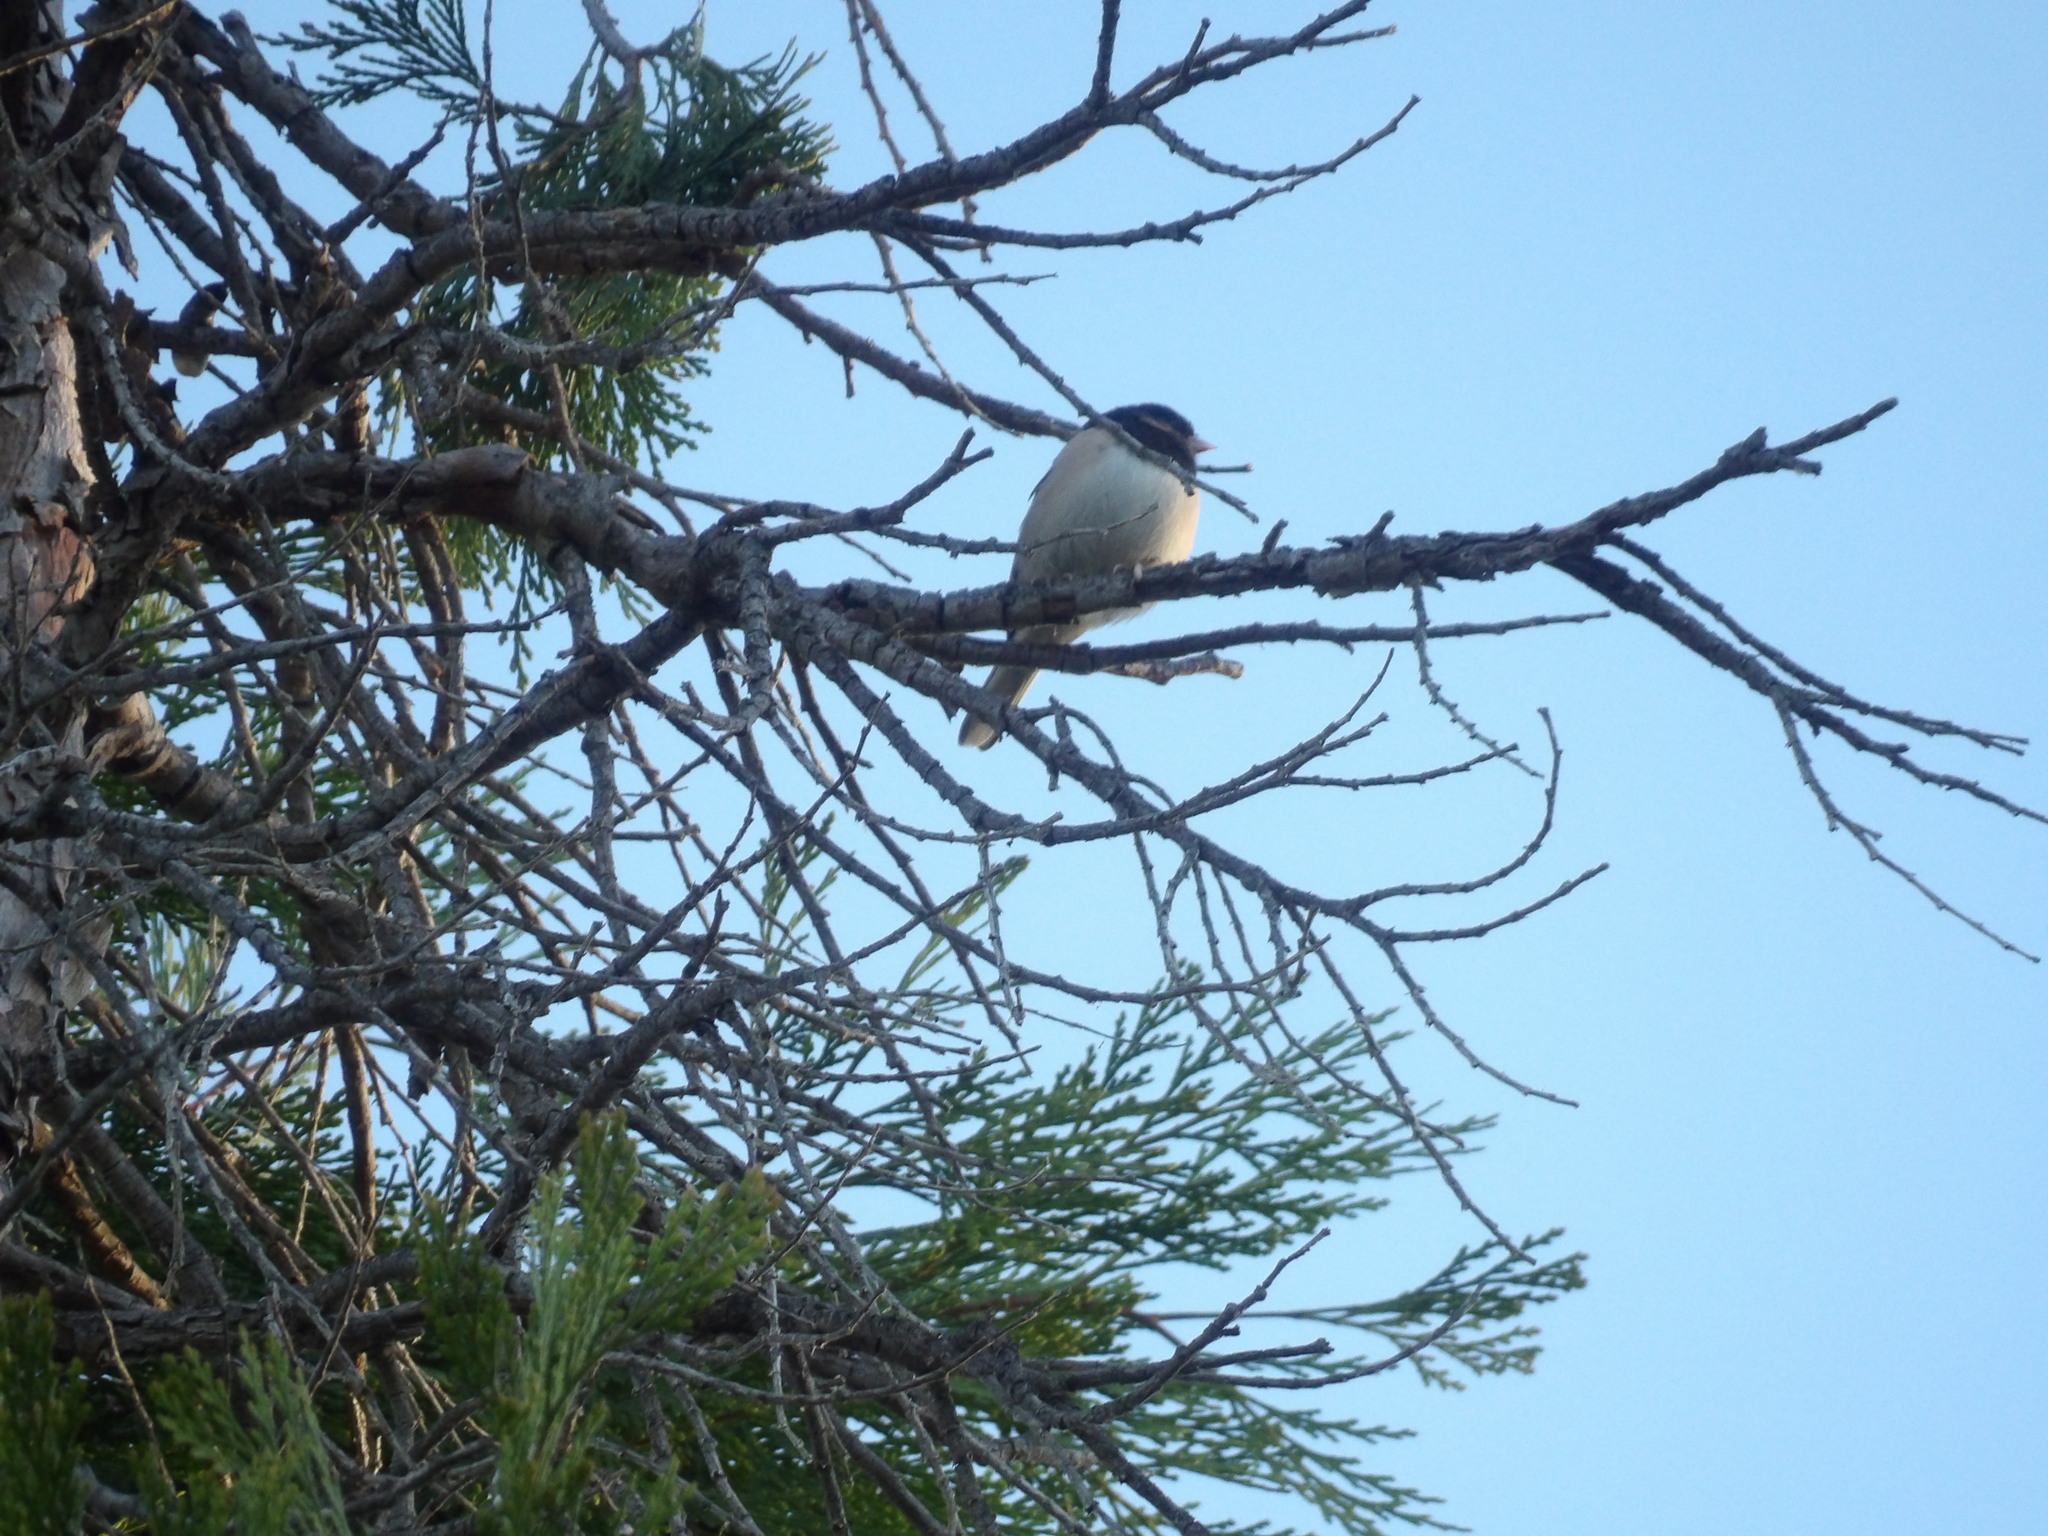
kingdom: Animalia
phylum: Chordata
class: Aves
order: Passeriformes
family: Passerellidae
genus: Junco
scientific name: Junco hyemalis
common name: Dark-eyed junco
